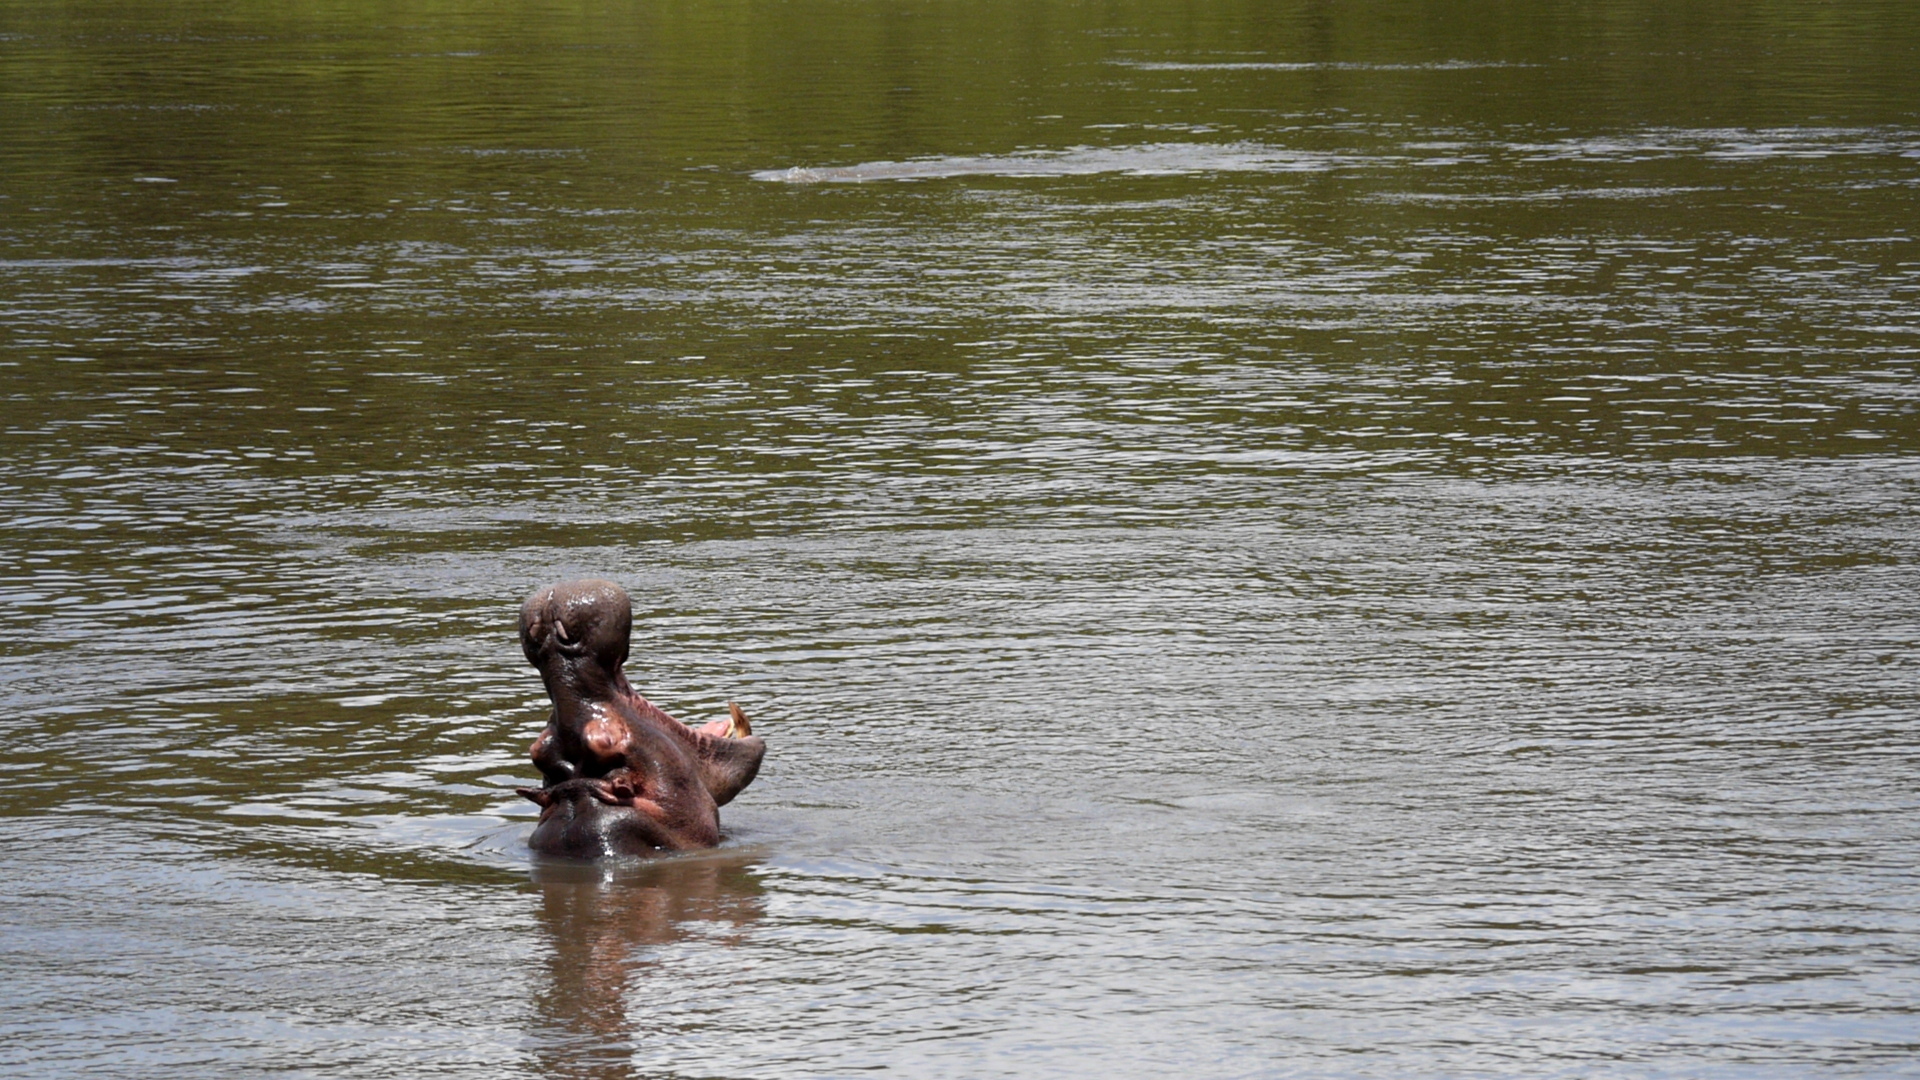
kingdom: Animalia
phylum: Chordata
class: Mammalia
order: Artiodactyla
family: Hippopotamidae
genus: Hippopotamus
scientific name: Hippopotamus amphibius
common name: Common hippopotamus
